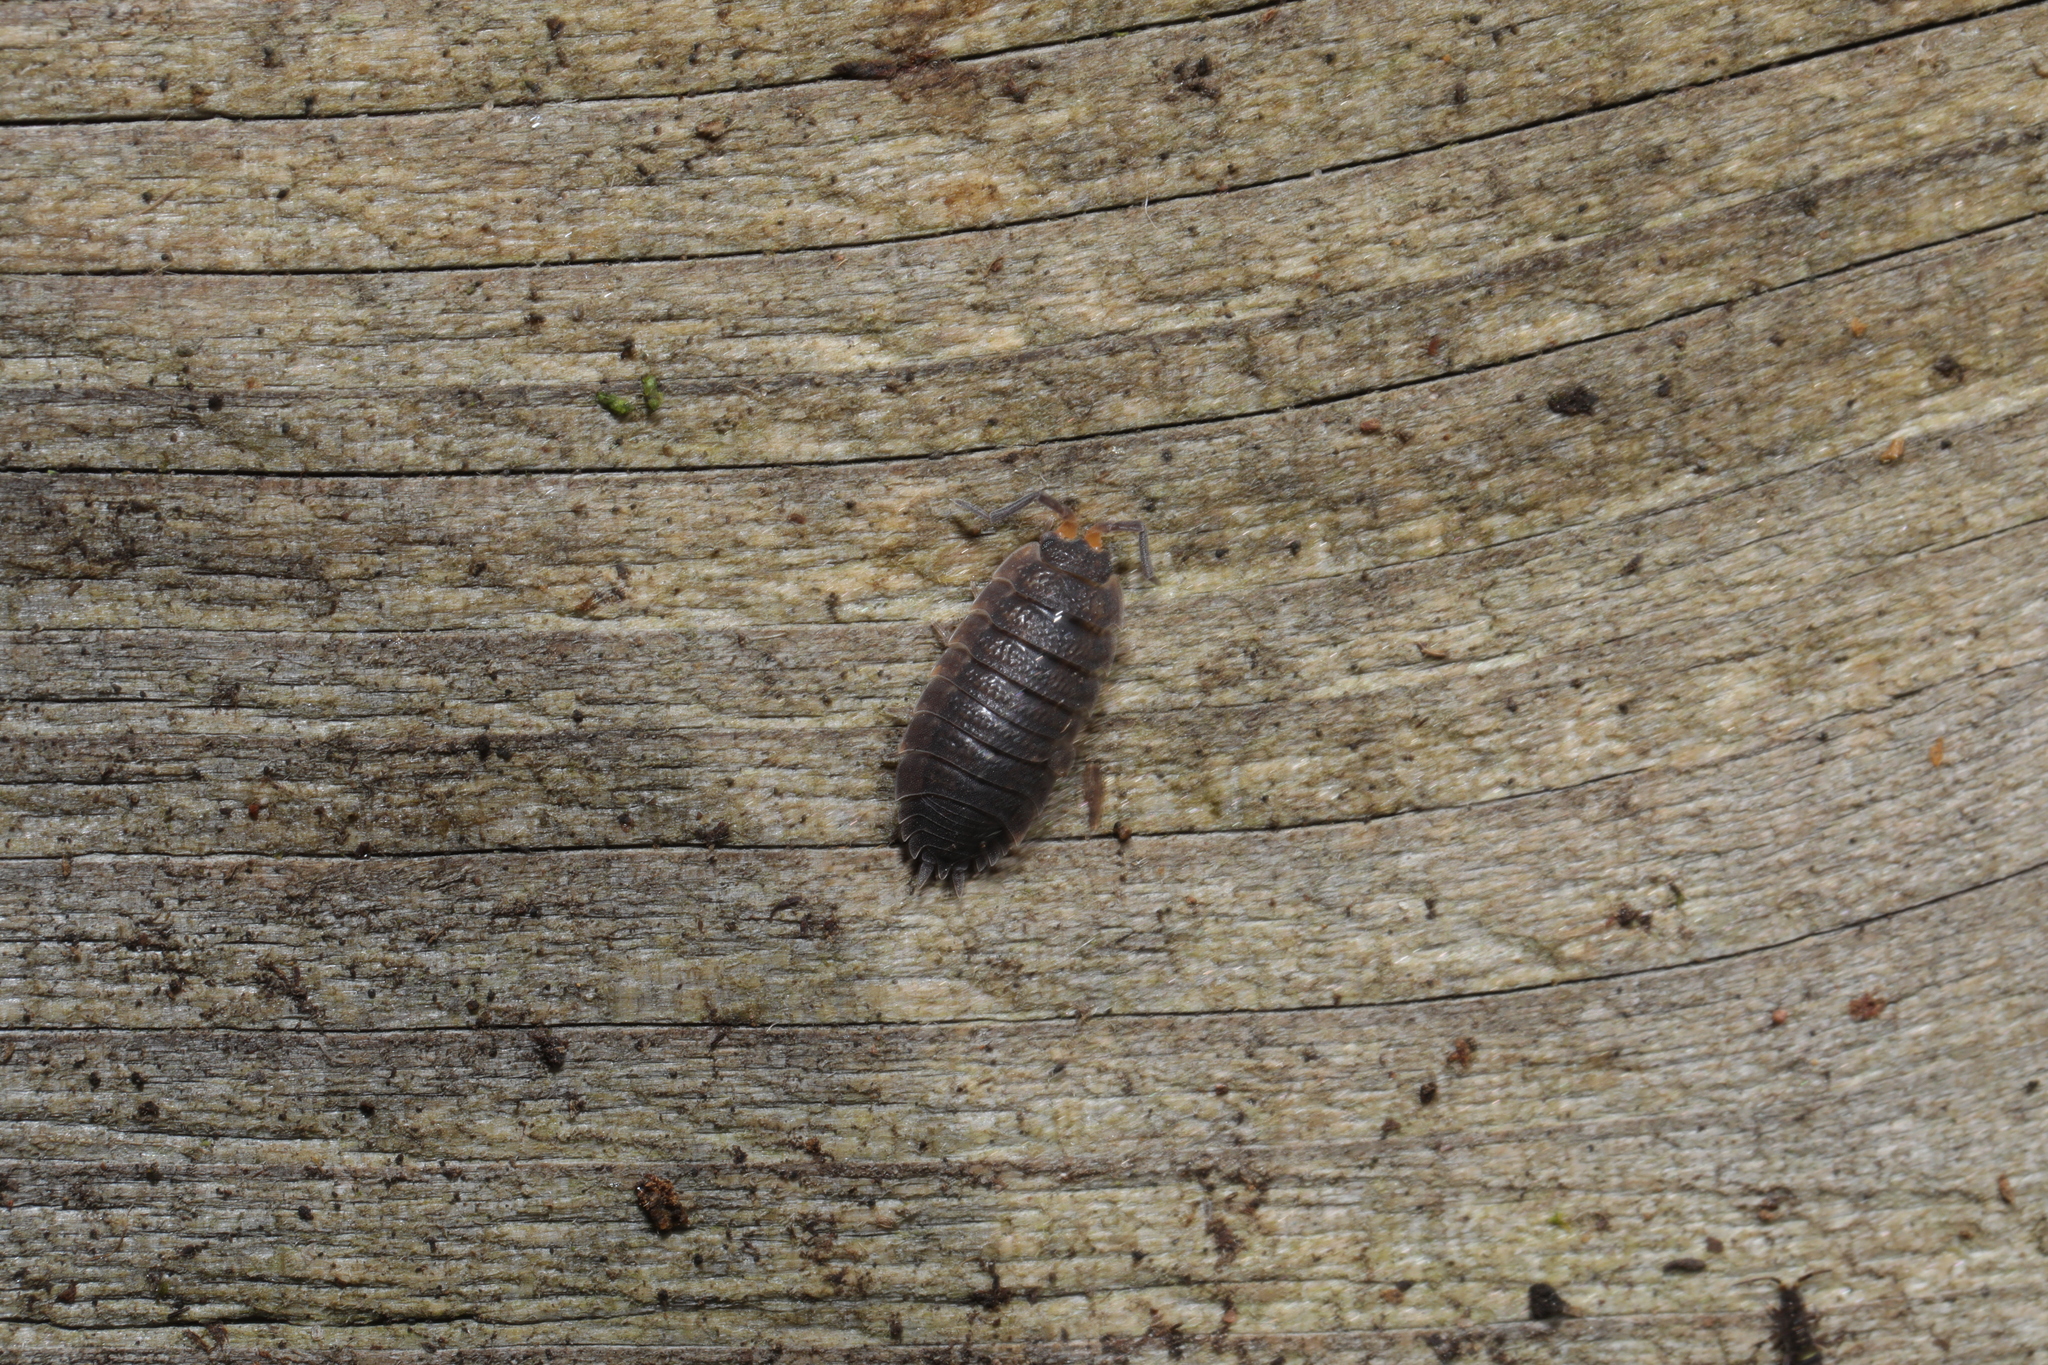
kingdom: Animalia
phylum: Arthropoda
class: Malacostraca
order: Isopoda
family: Porcellionidae
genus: Porcellio
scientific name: Porcellio scaber
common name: Common rough woodlouse
